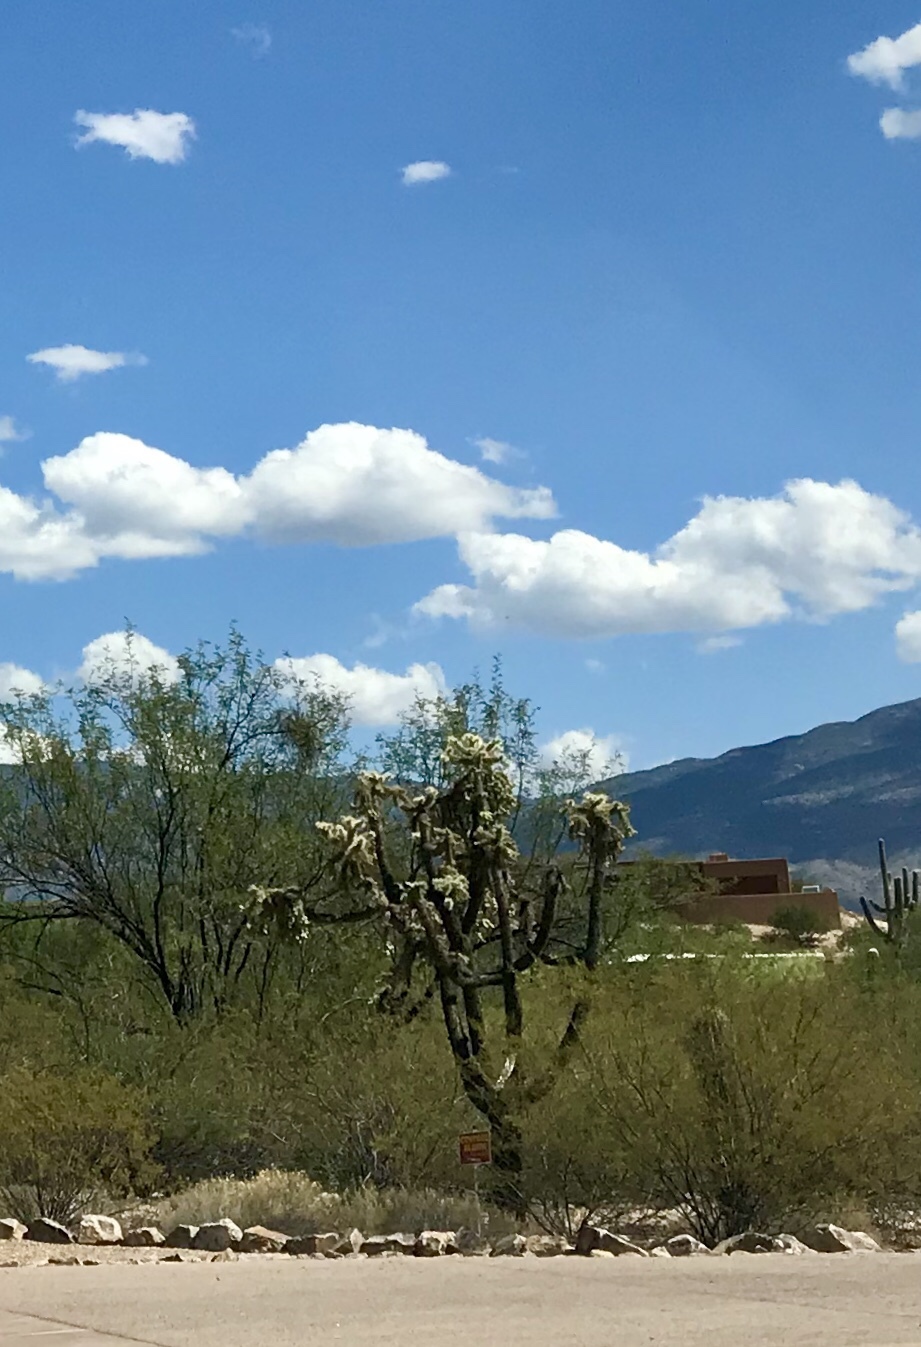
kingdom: Plantae
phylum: Tracheophyta
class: Magnoliopsida
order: Caryophyllales
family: Cactaceae
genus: Cylindropuntia
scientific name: Cylindropuntia fulgida
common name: Jumping cholla
